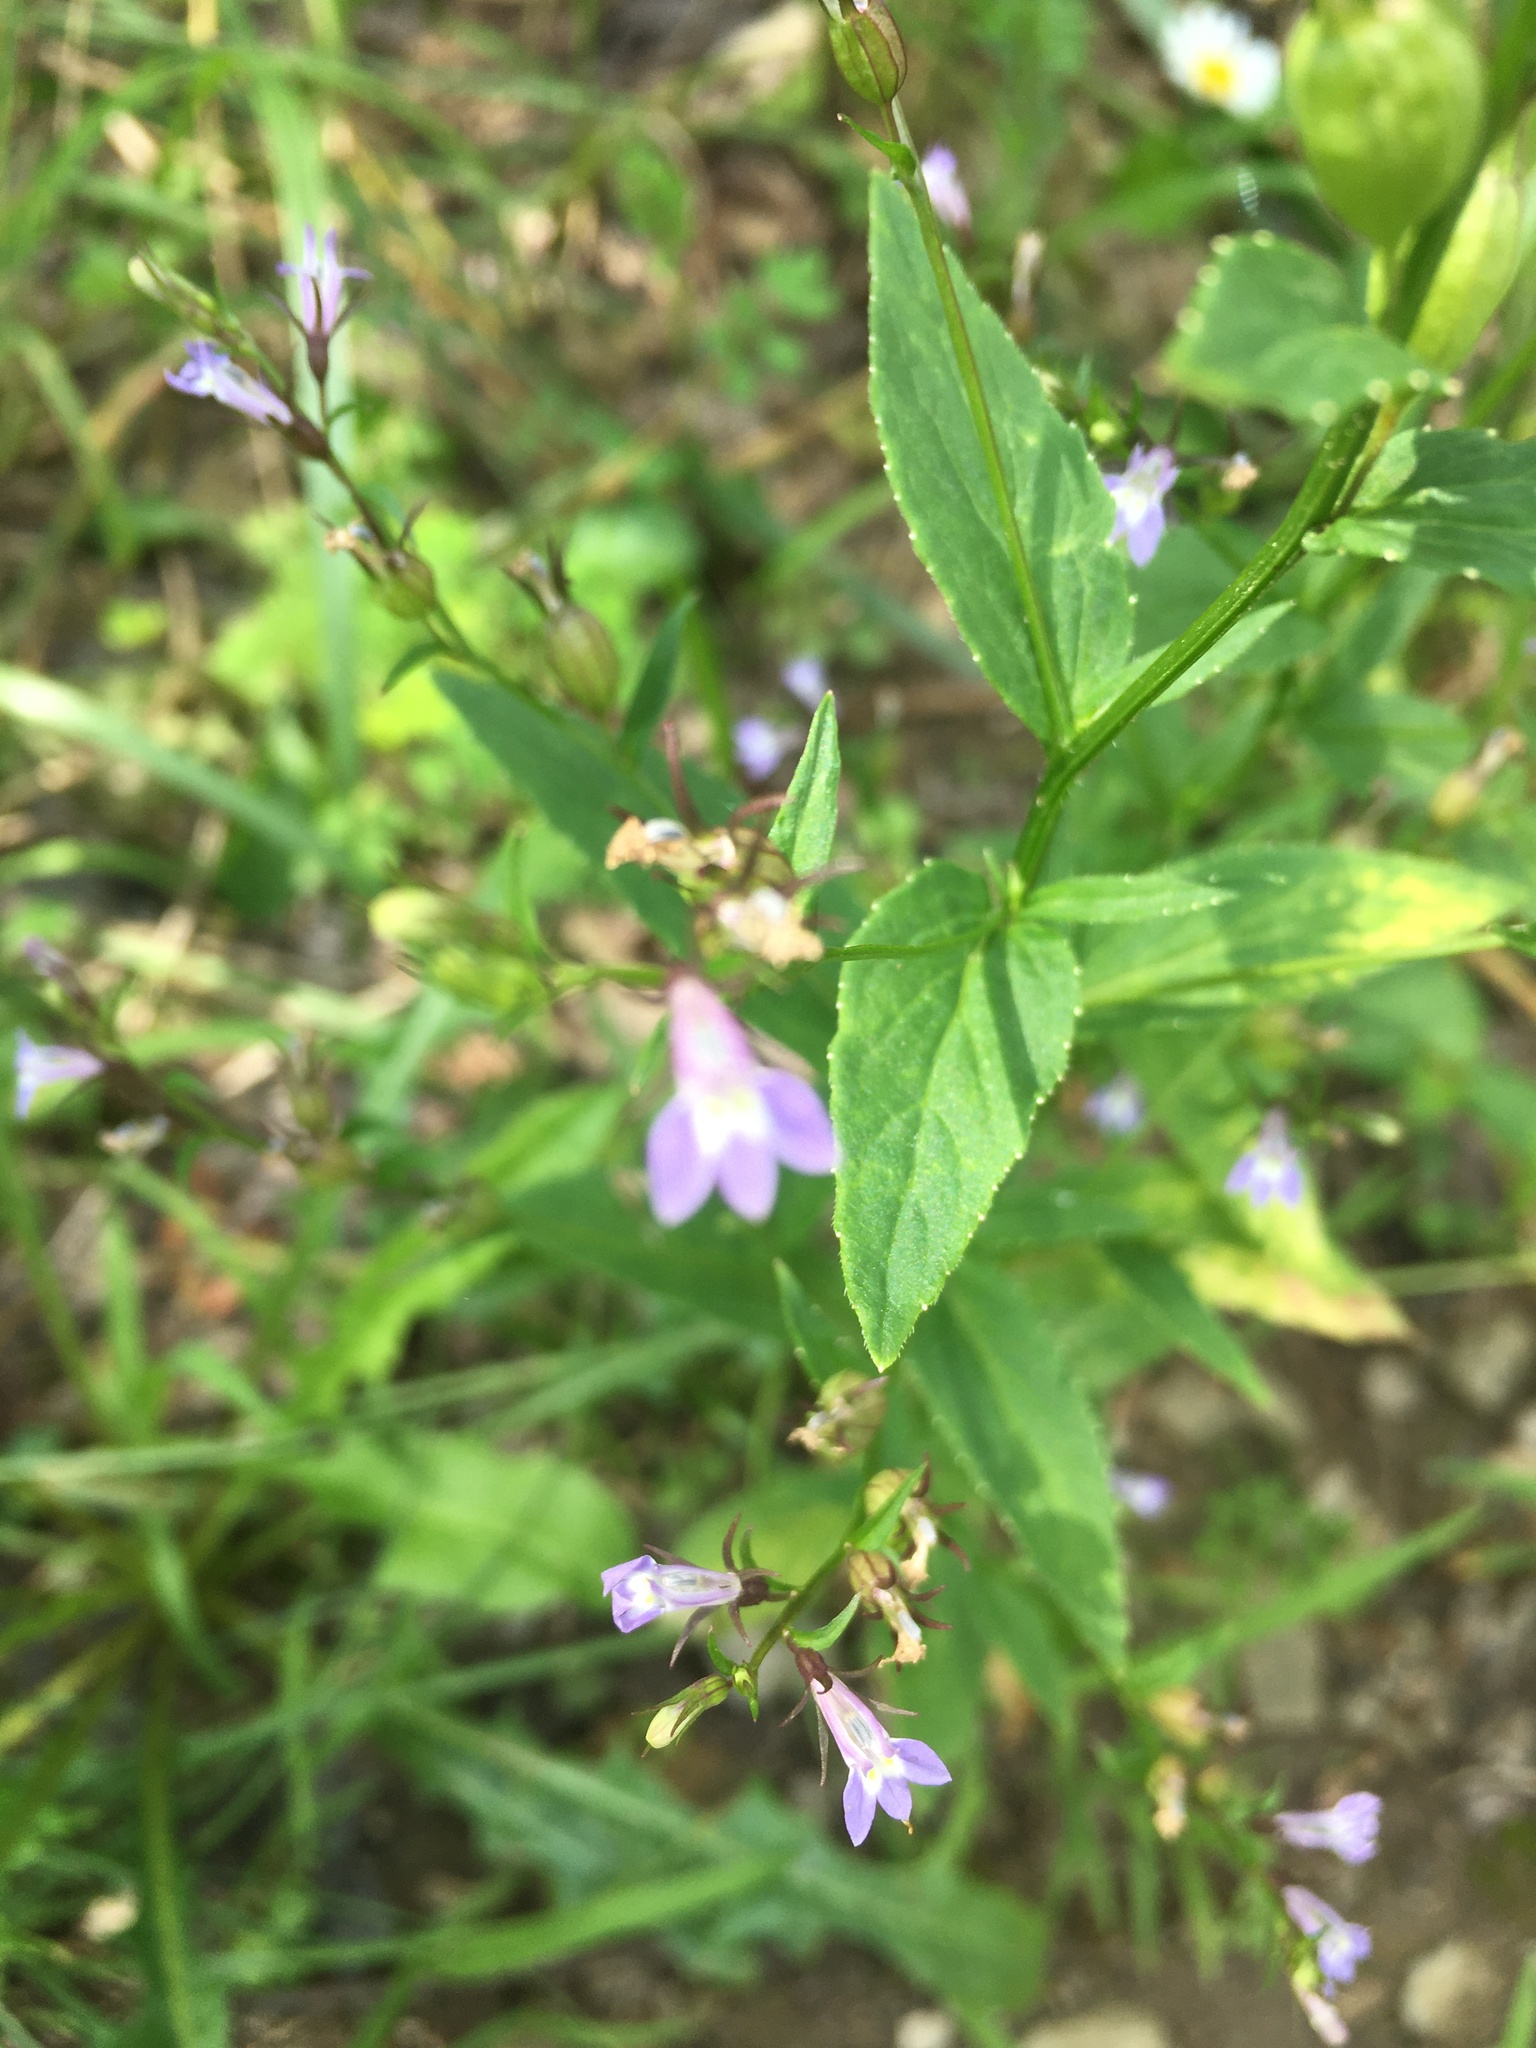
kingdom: Plantae
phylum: Tracheophyta
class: Magnoliopsida
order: Asterales
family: Campanulaceae
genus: Lobelia
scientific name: Lobelia inflata
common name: Indian tobacco
